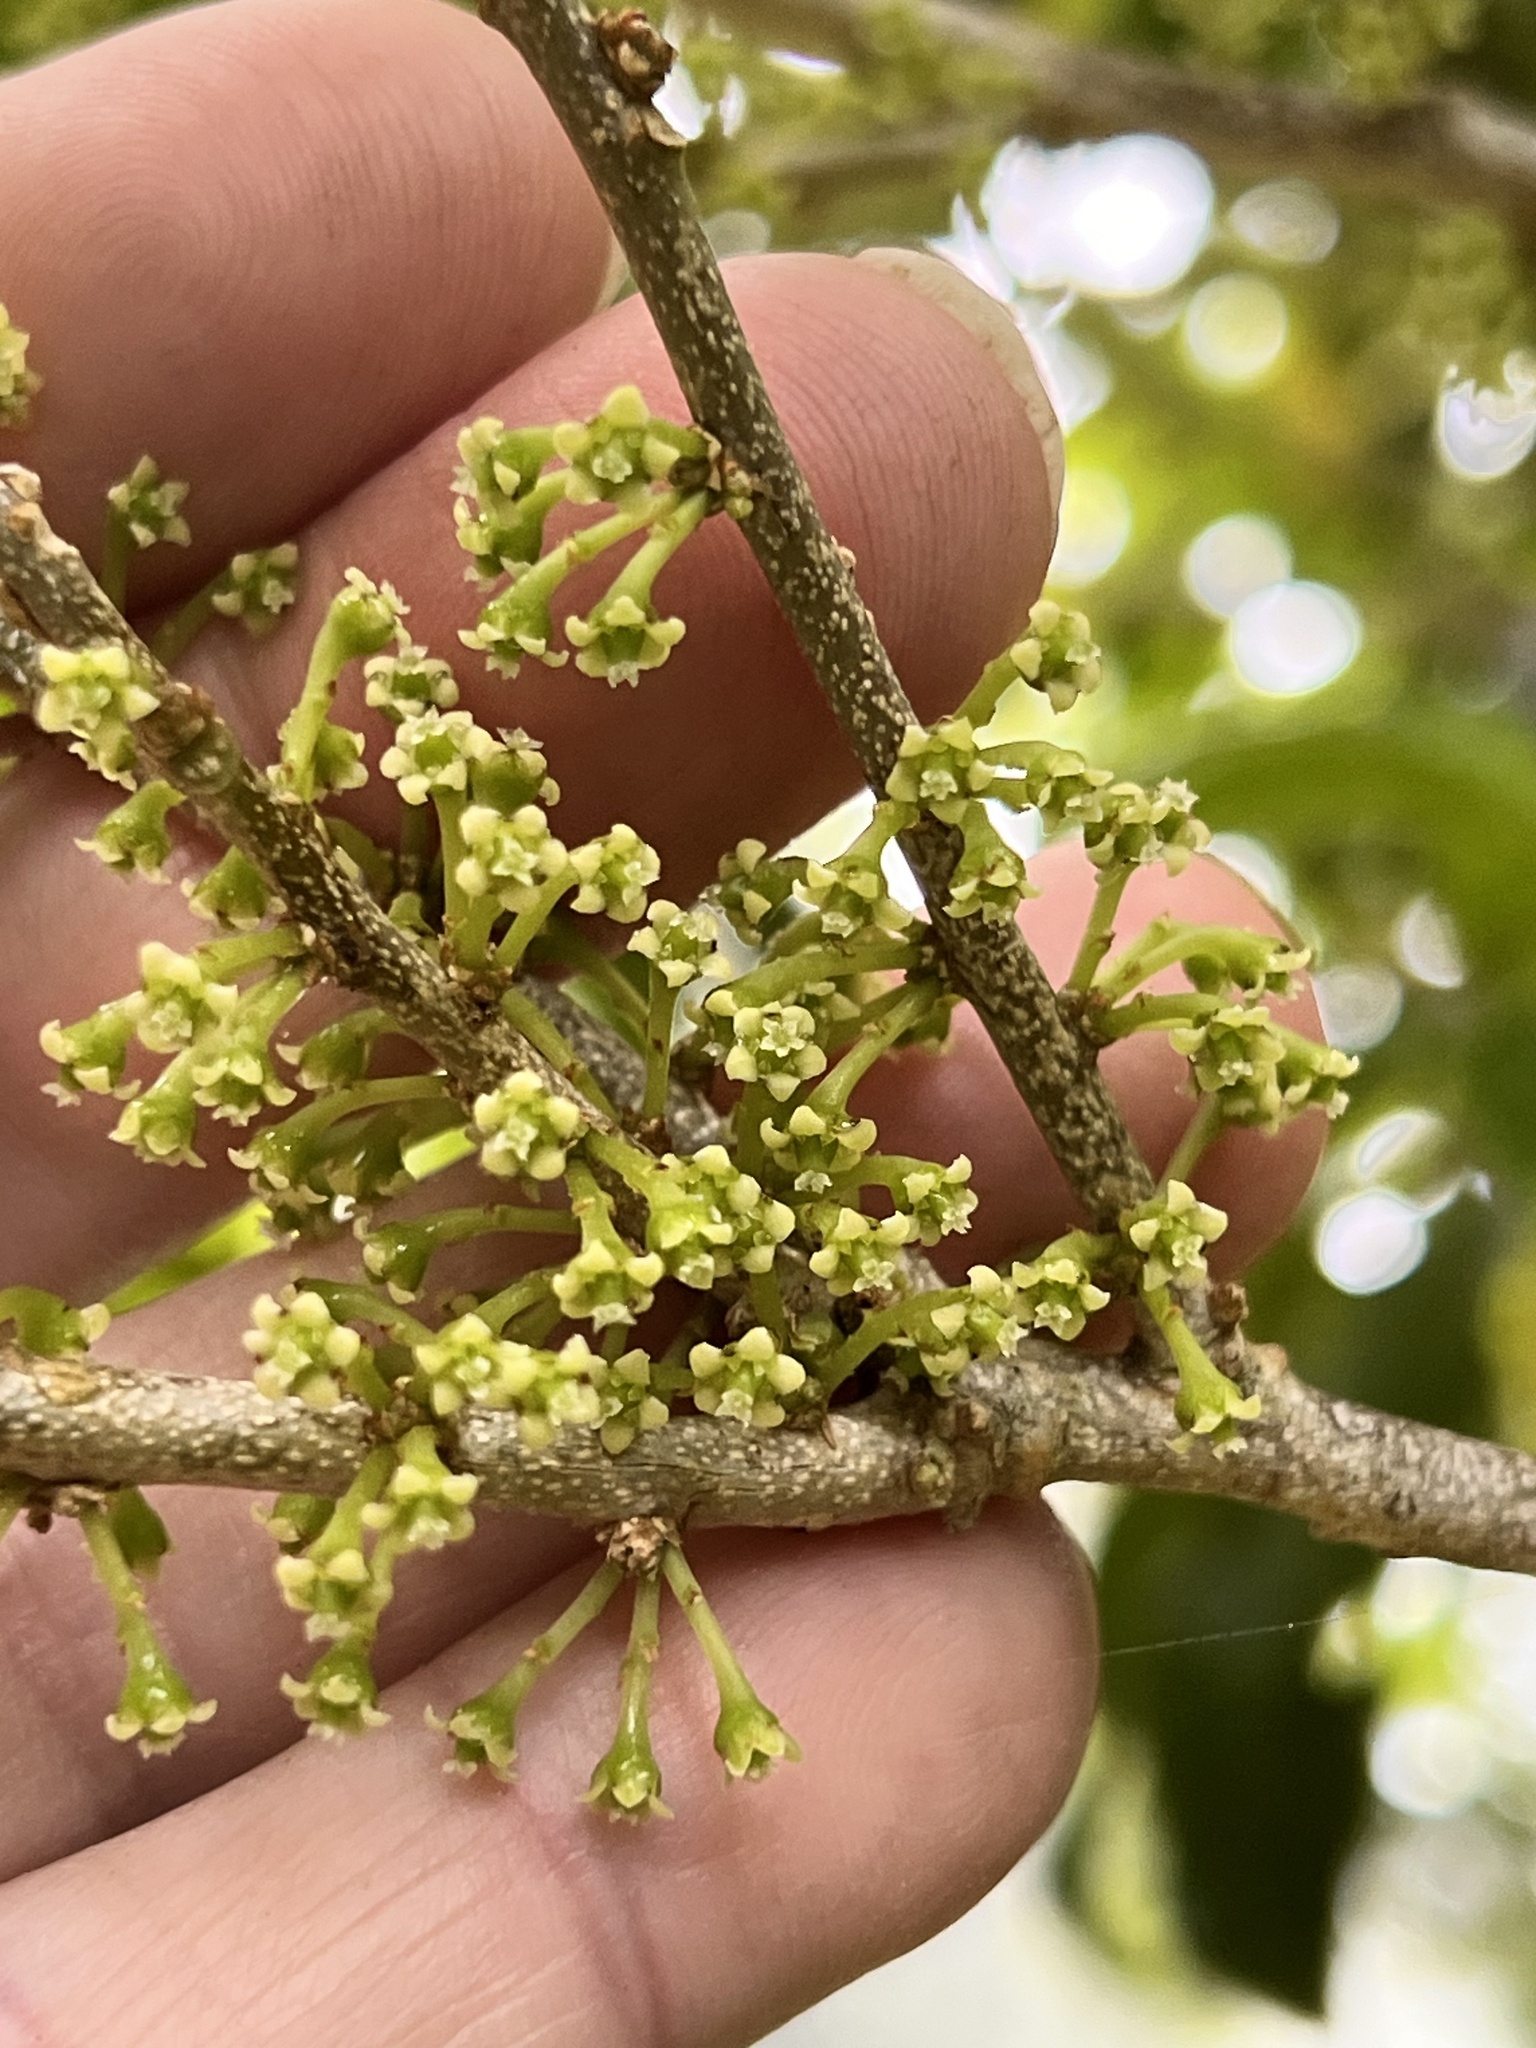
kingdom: Plantae
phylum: Tracheophyta
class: Magnoliopsida
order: Malpighiales
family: Violaceae
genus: Melicytus
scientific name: Melicytus ramiflorus
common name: Mahoe
